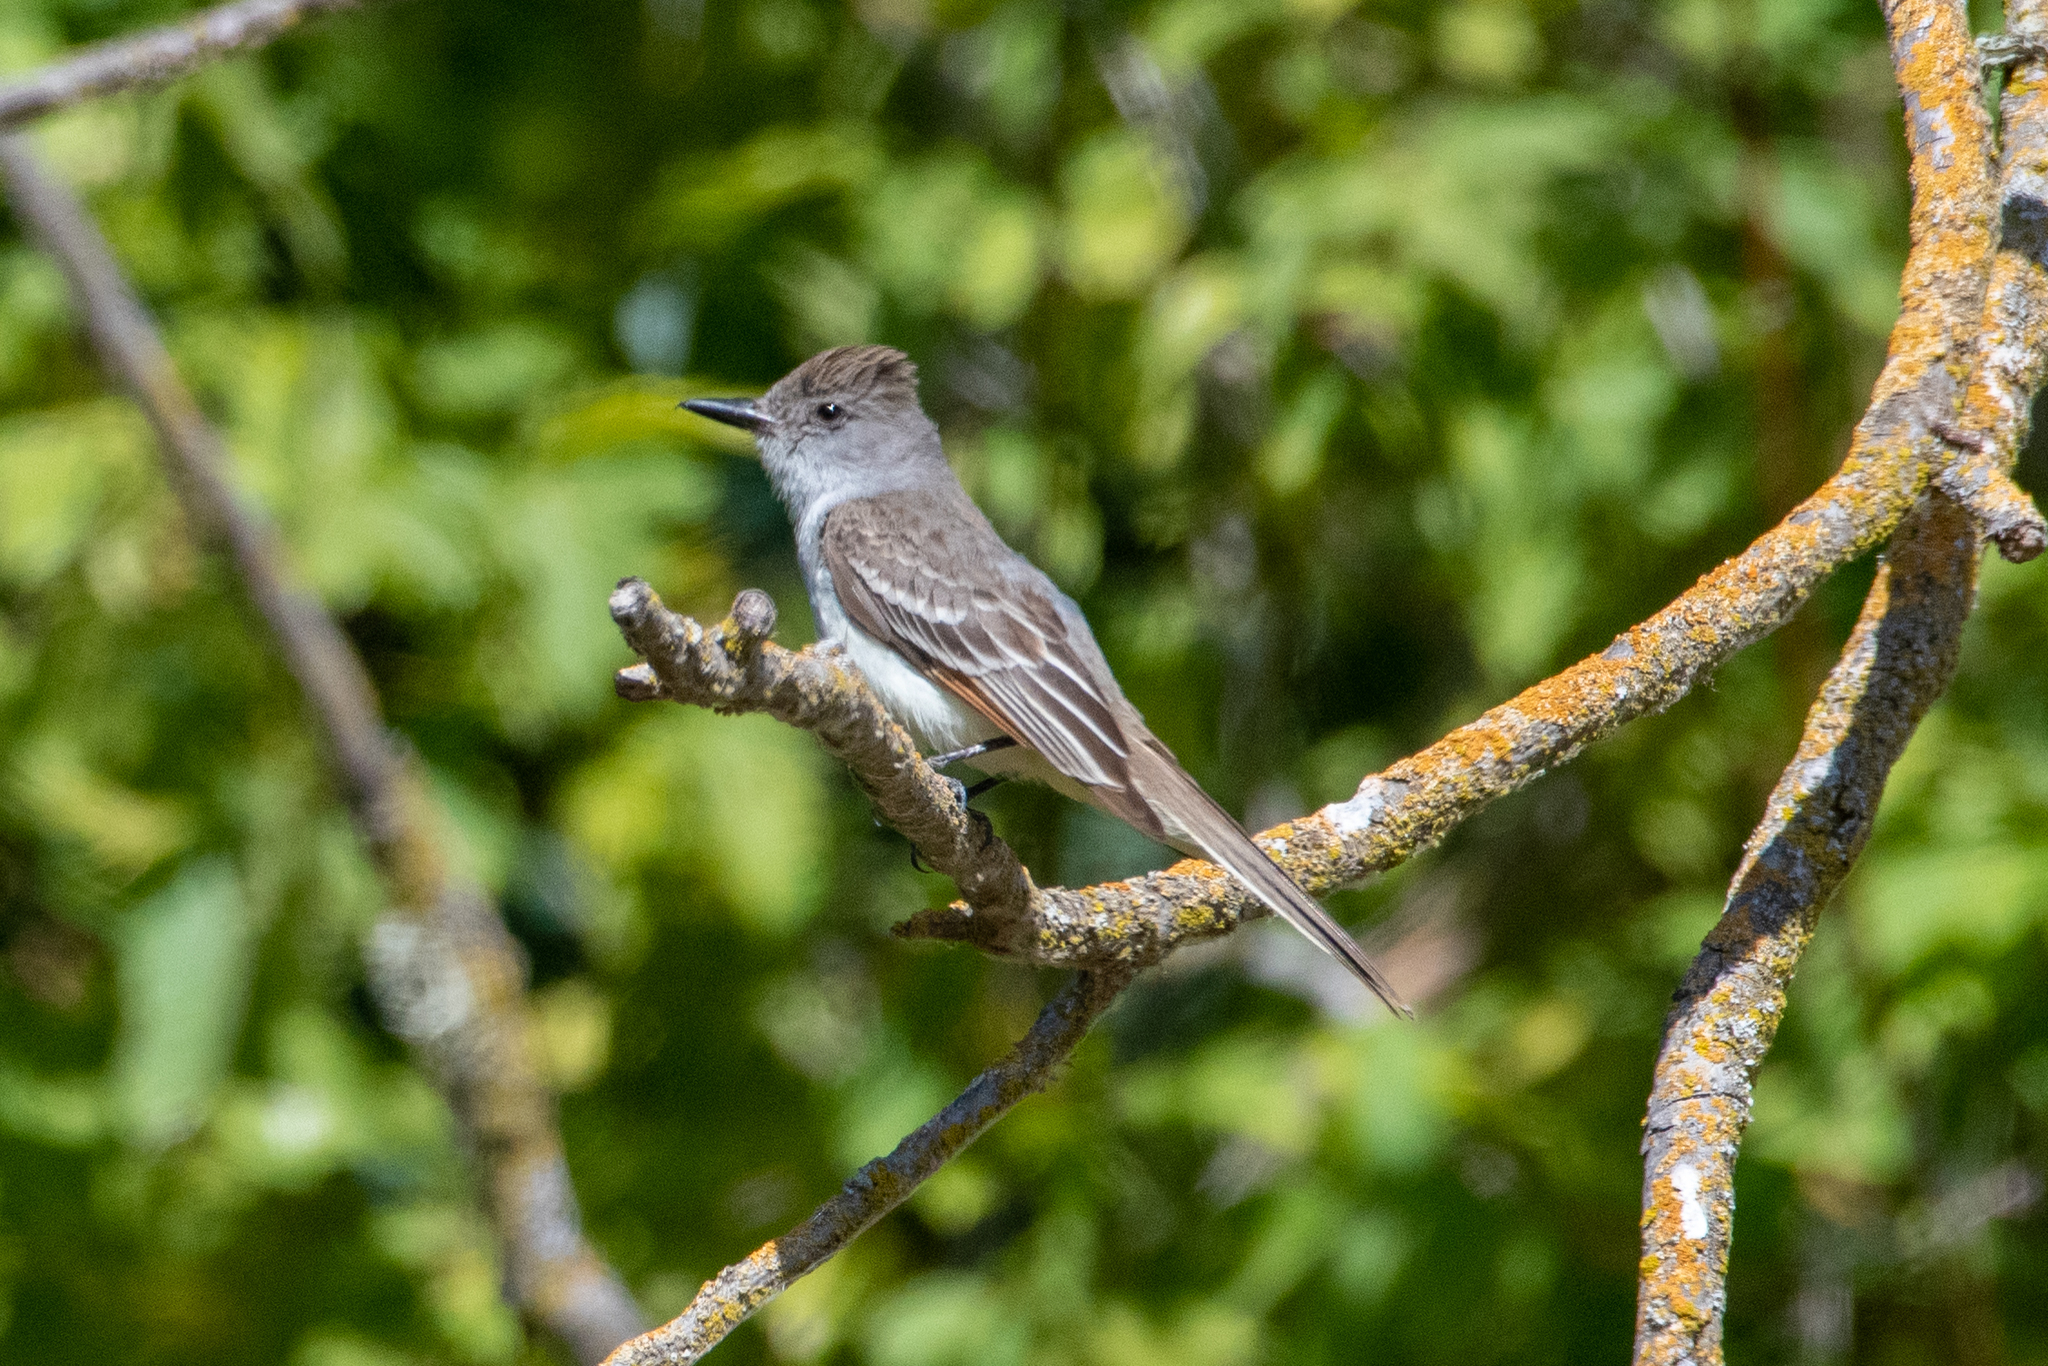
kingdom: Animalia
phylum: Chordata
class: Aves
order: Passeriformes
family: Tyrannidae
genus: Myiarchus
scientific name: Myiarchus cinerascens
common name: Ash-throated flycatcher
